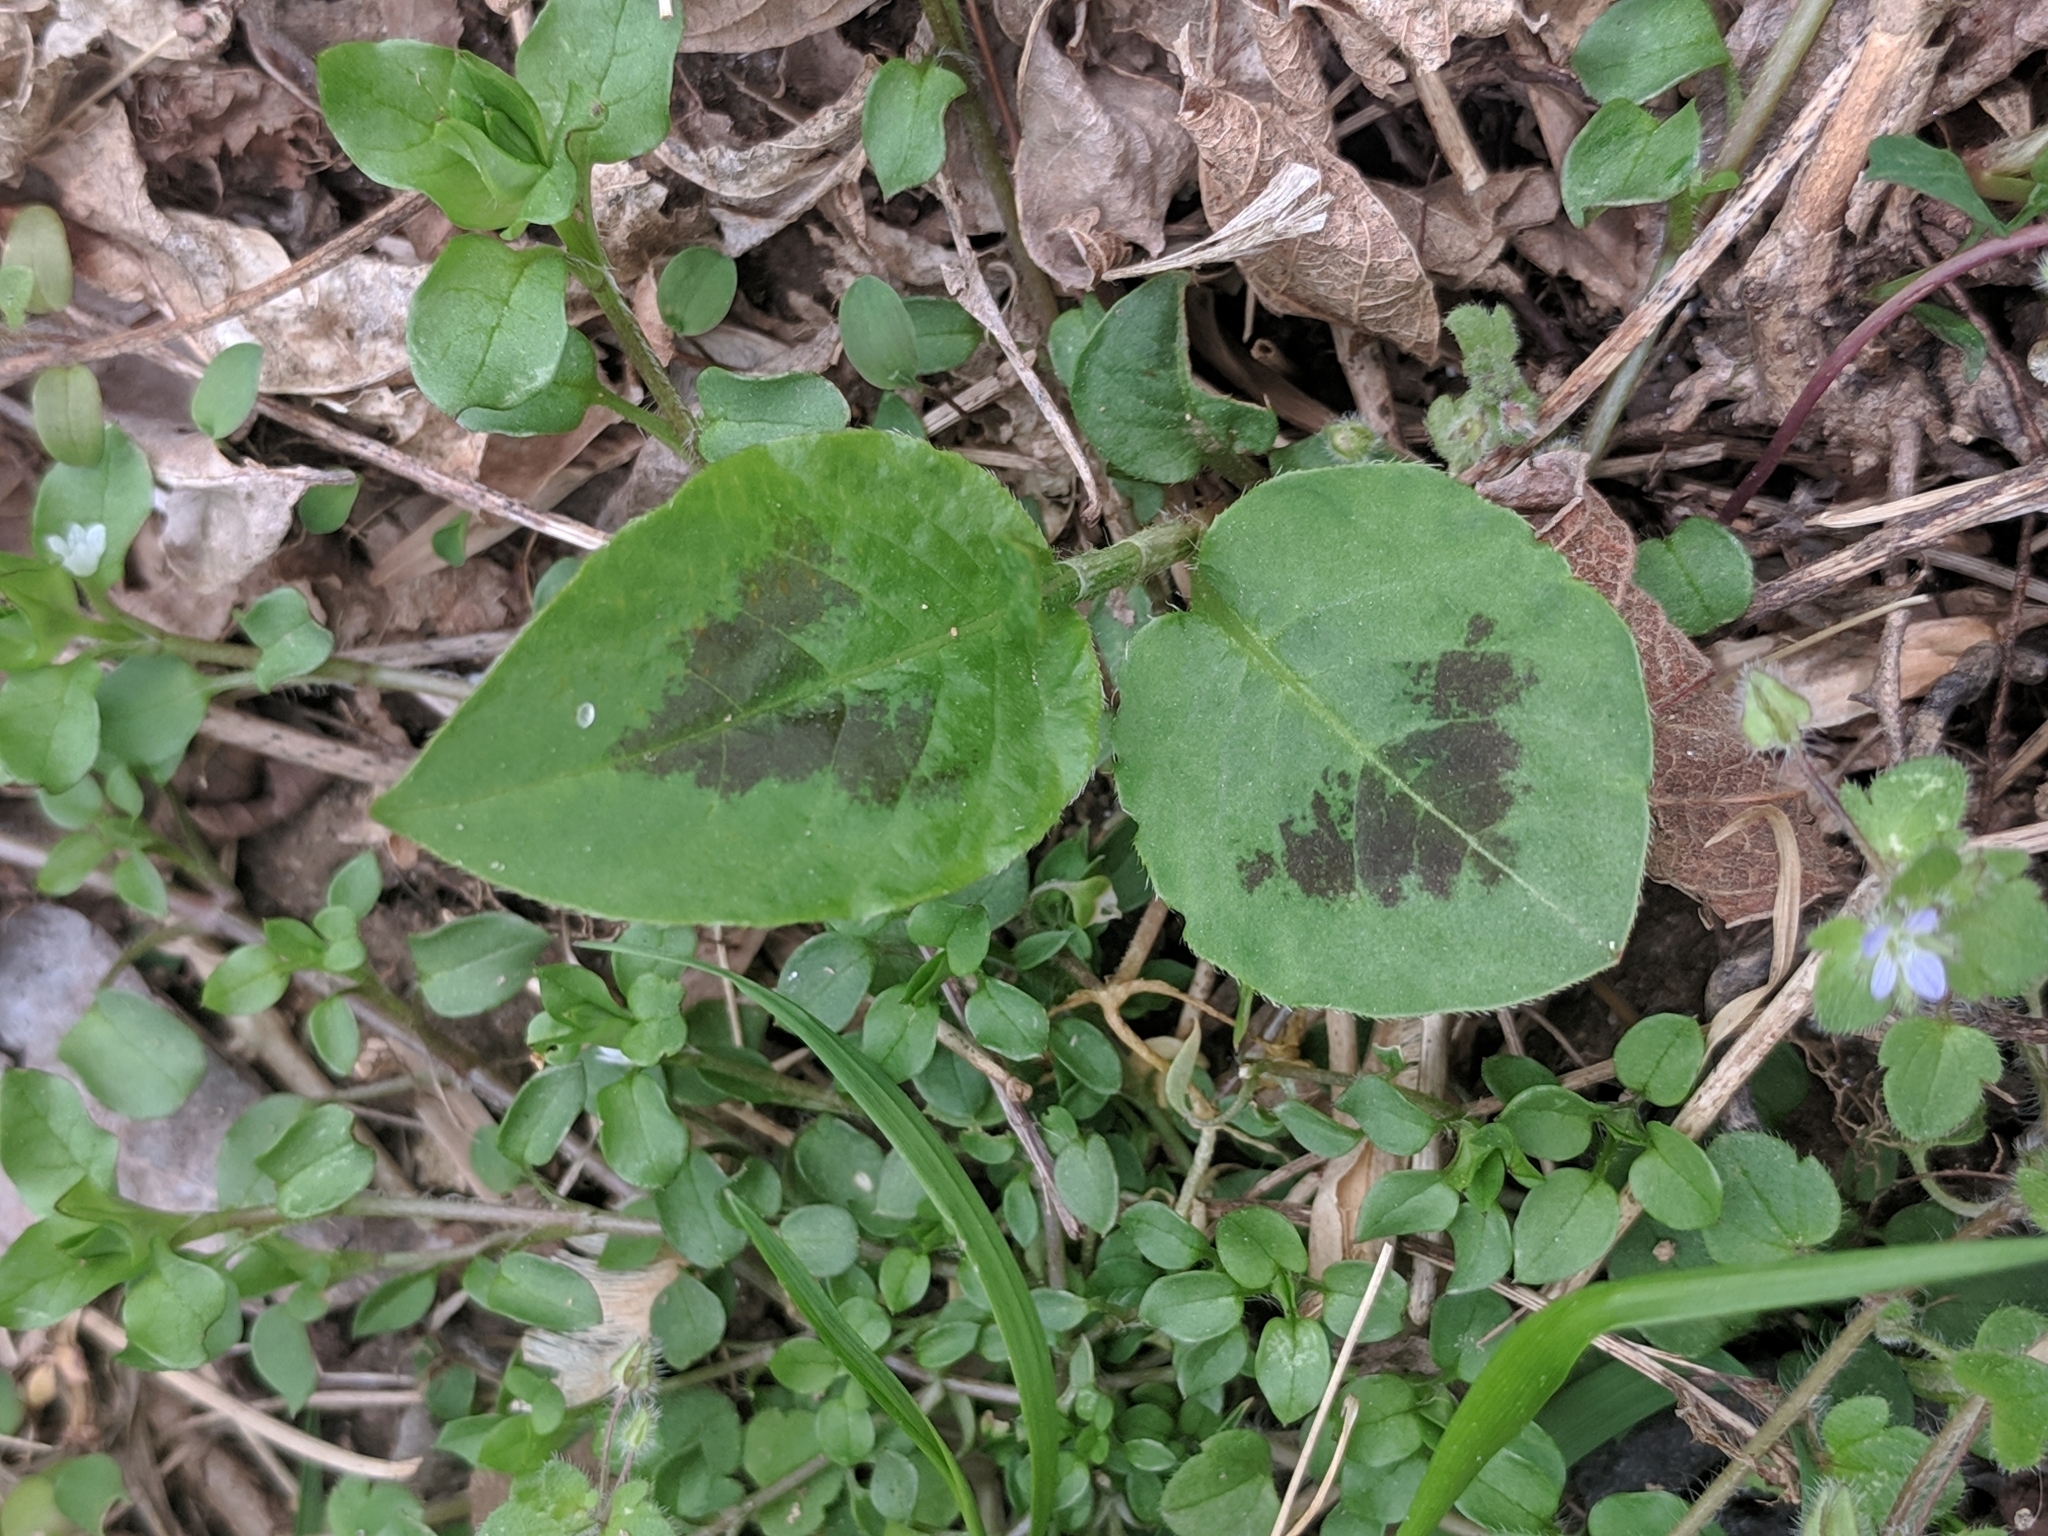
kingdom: Plantae
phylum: Tracheophyta
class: Magnoliopsida
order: Caryophyllales
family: Polygonaceae
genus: Persicaria
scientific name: Persicaria virginiana
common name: Jumpseed
